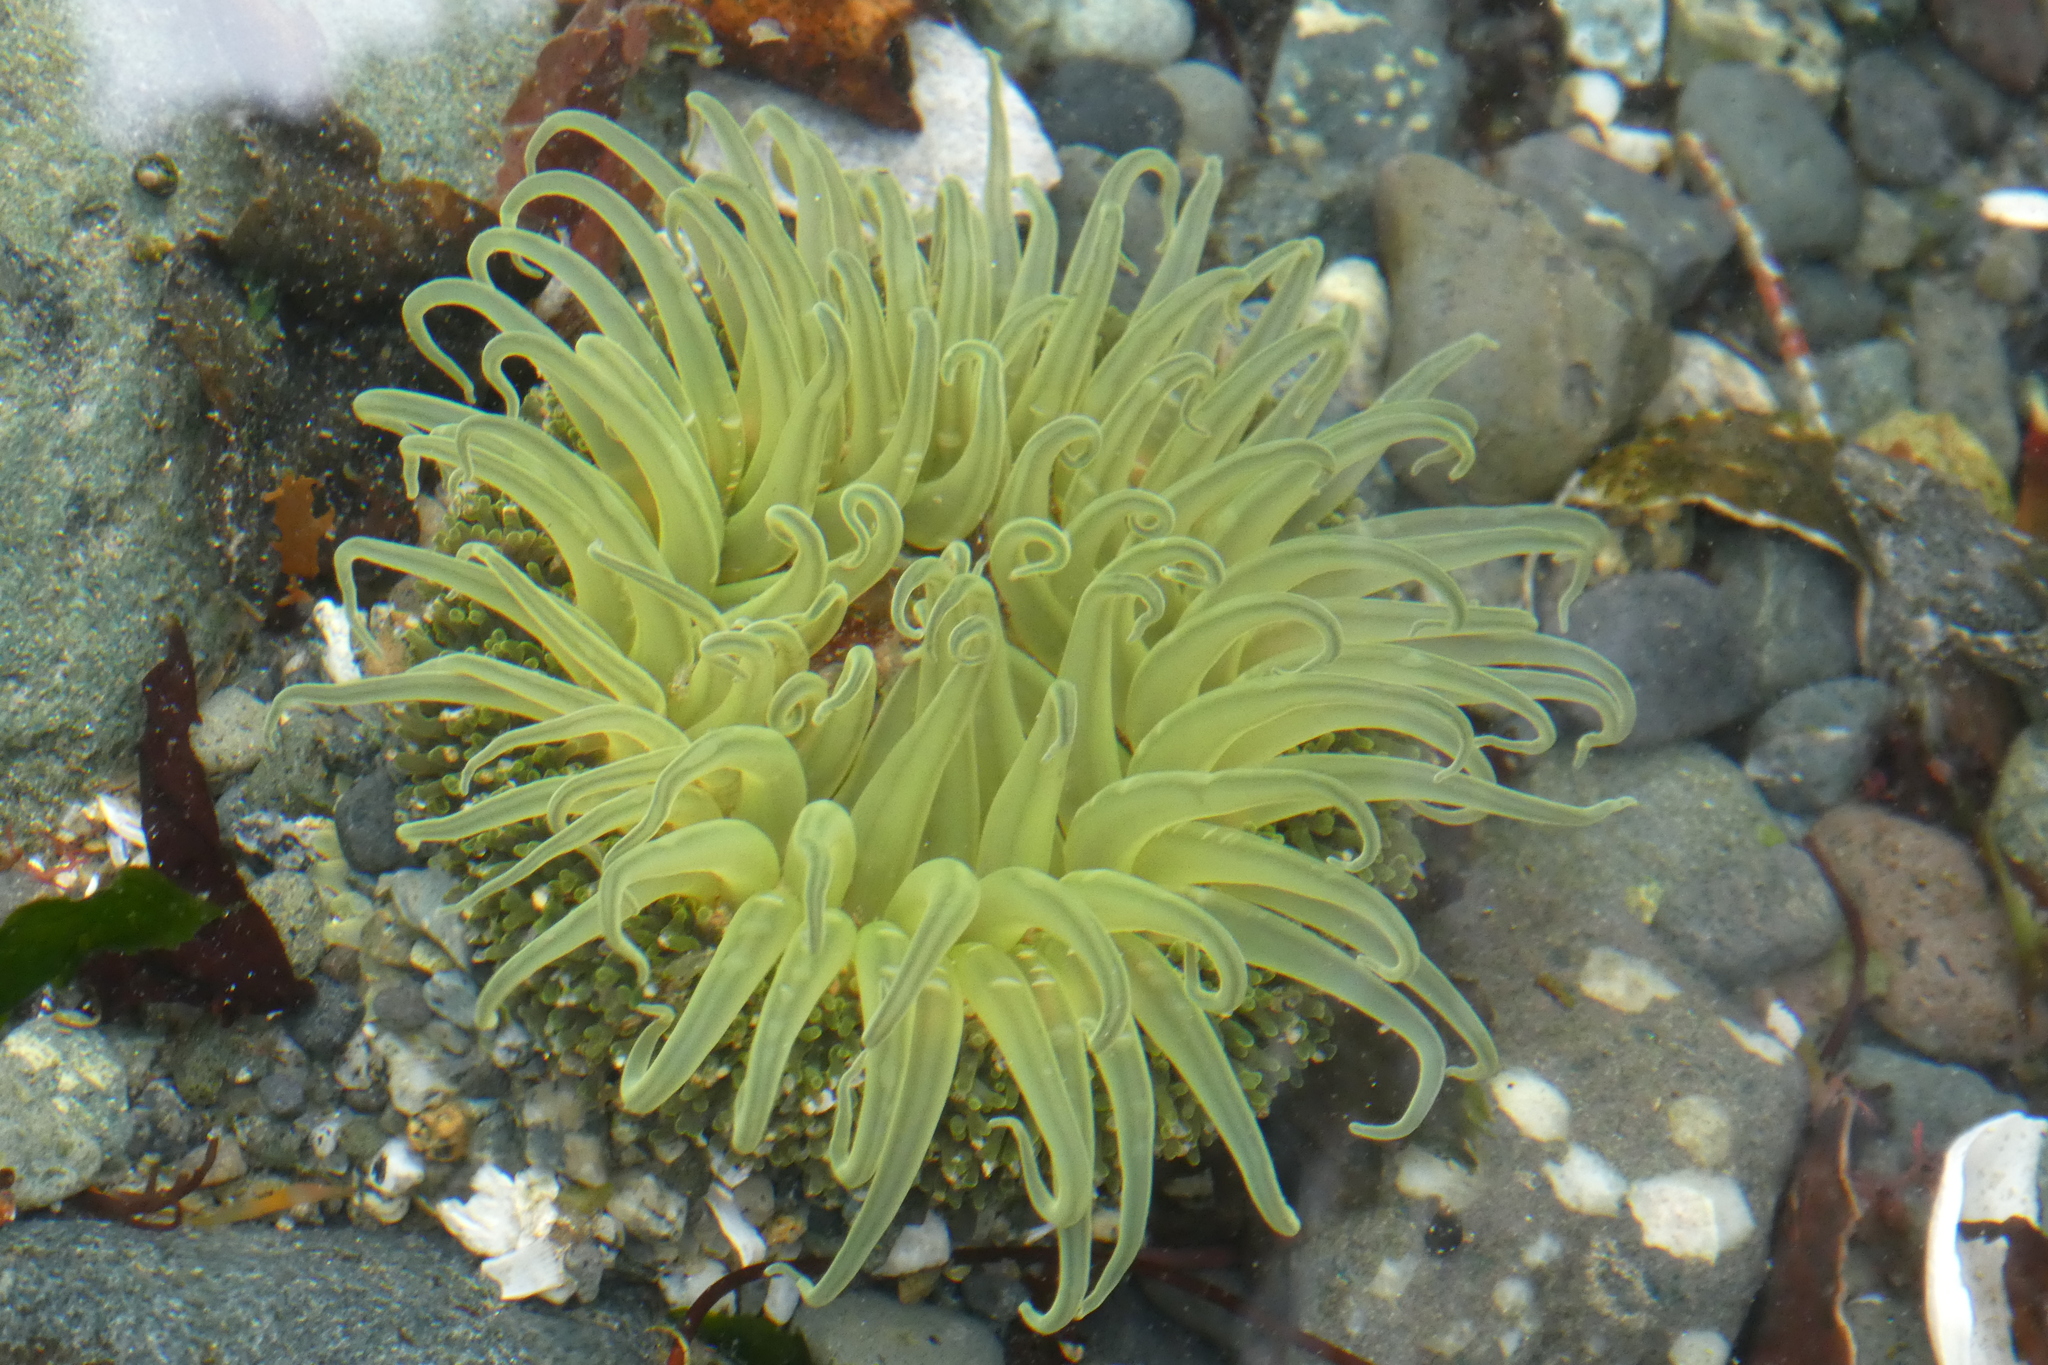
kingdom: Animalia
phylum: Cnidaria
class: Anthozoa
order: Actiniaria
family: Actiniidae
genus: Anthopleura
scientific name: Anthopleura artemisia
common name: Buried sea anemone
